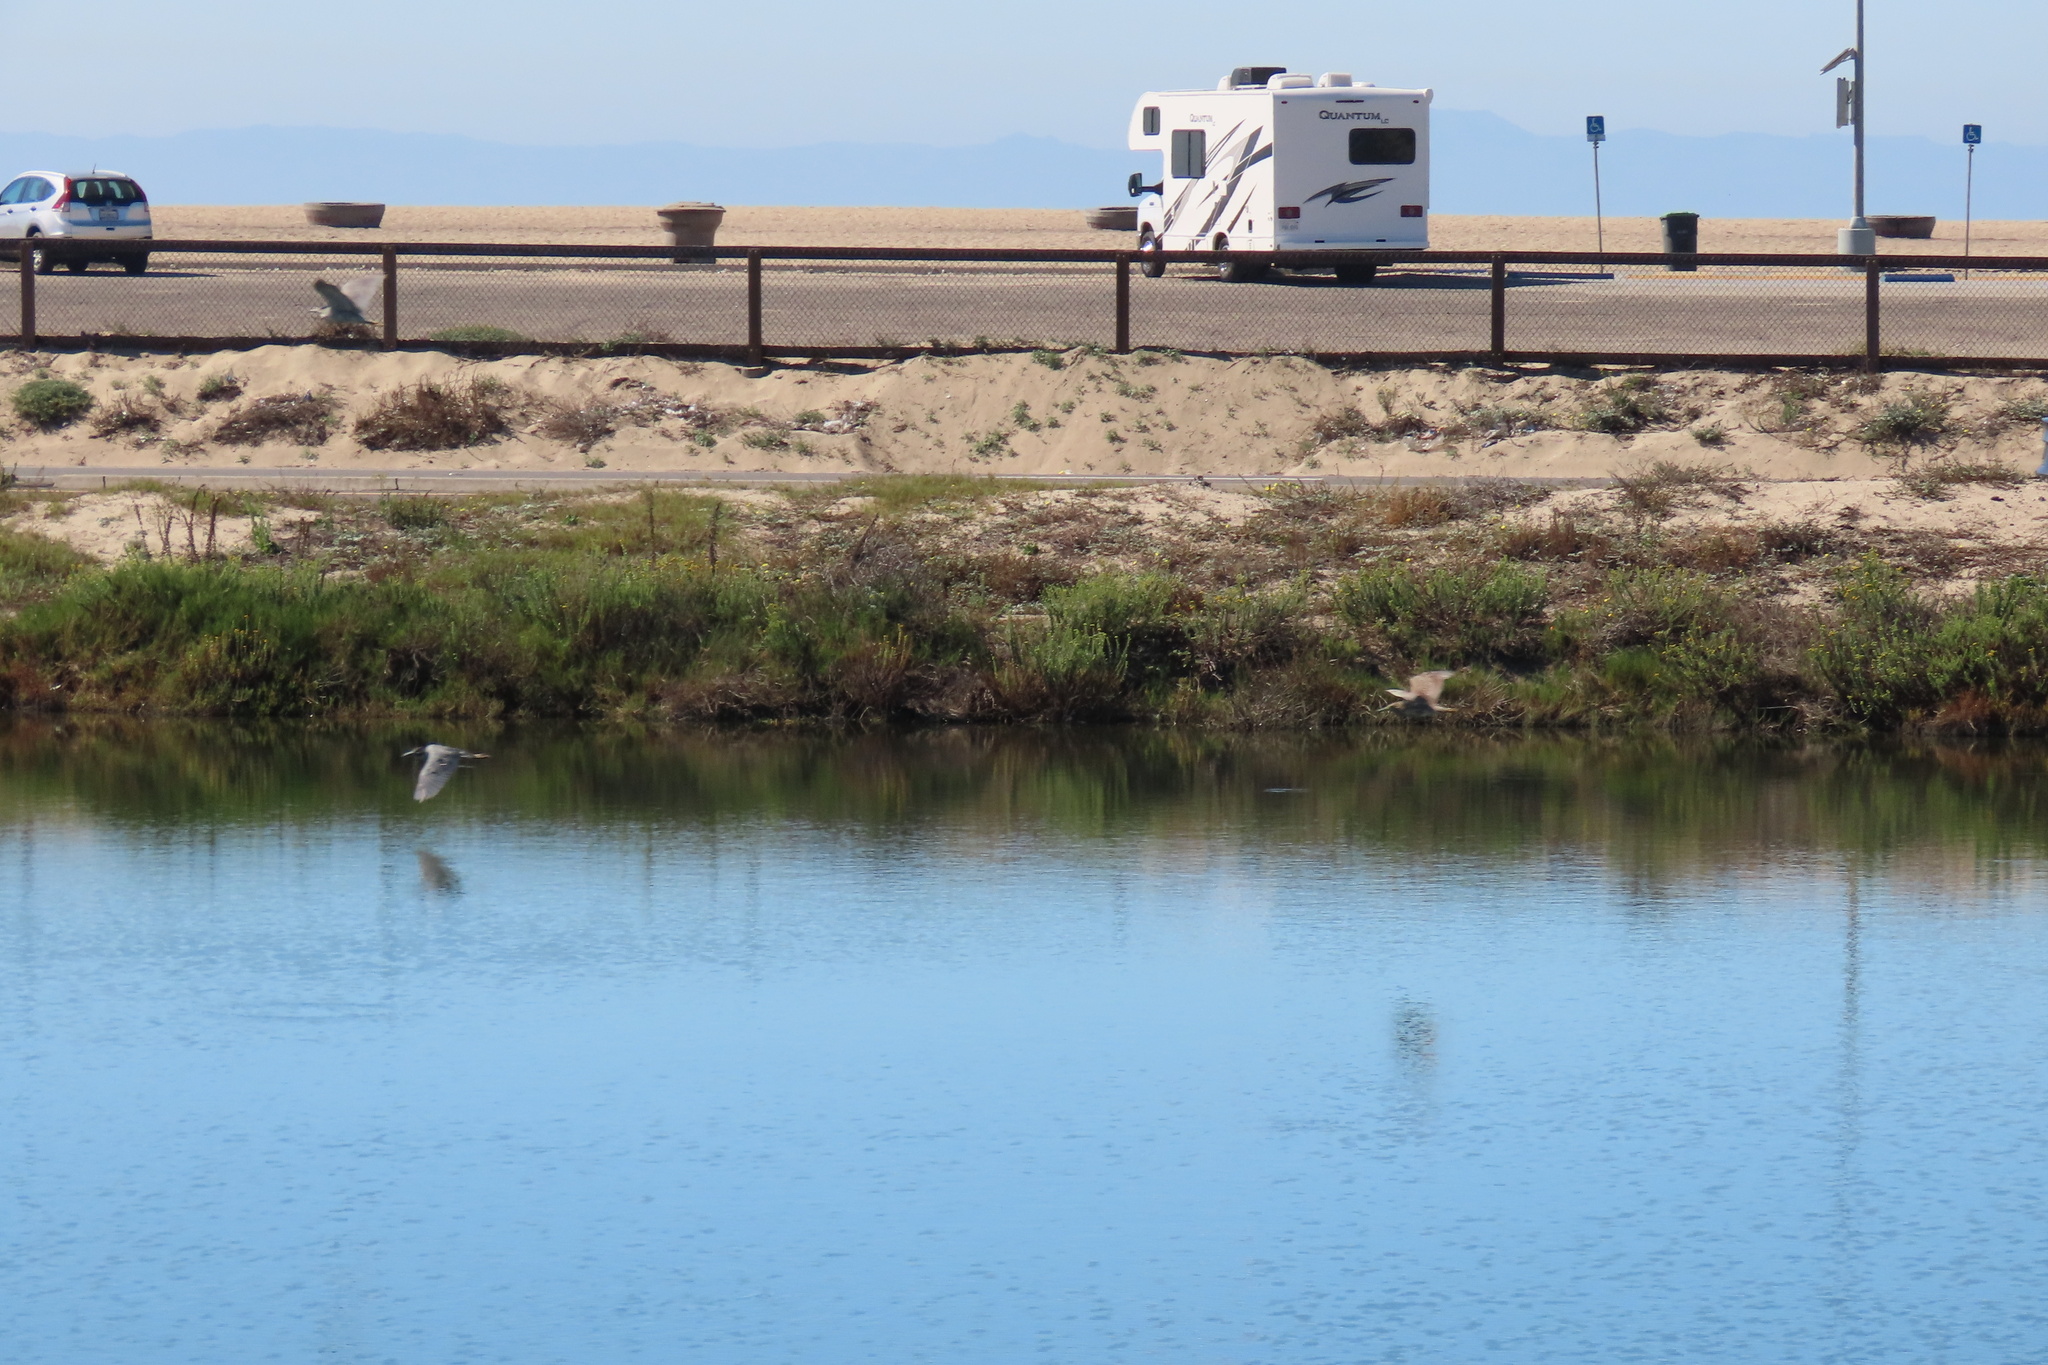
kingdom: Animalia
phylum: Chordata
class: Aves
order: Pelecaniformes
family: Ardeidae
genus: Nyctanassa
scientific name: Nyctanassa violacea
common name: Yellow-crowned night heron
